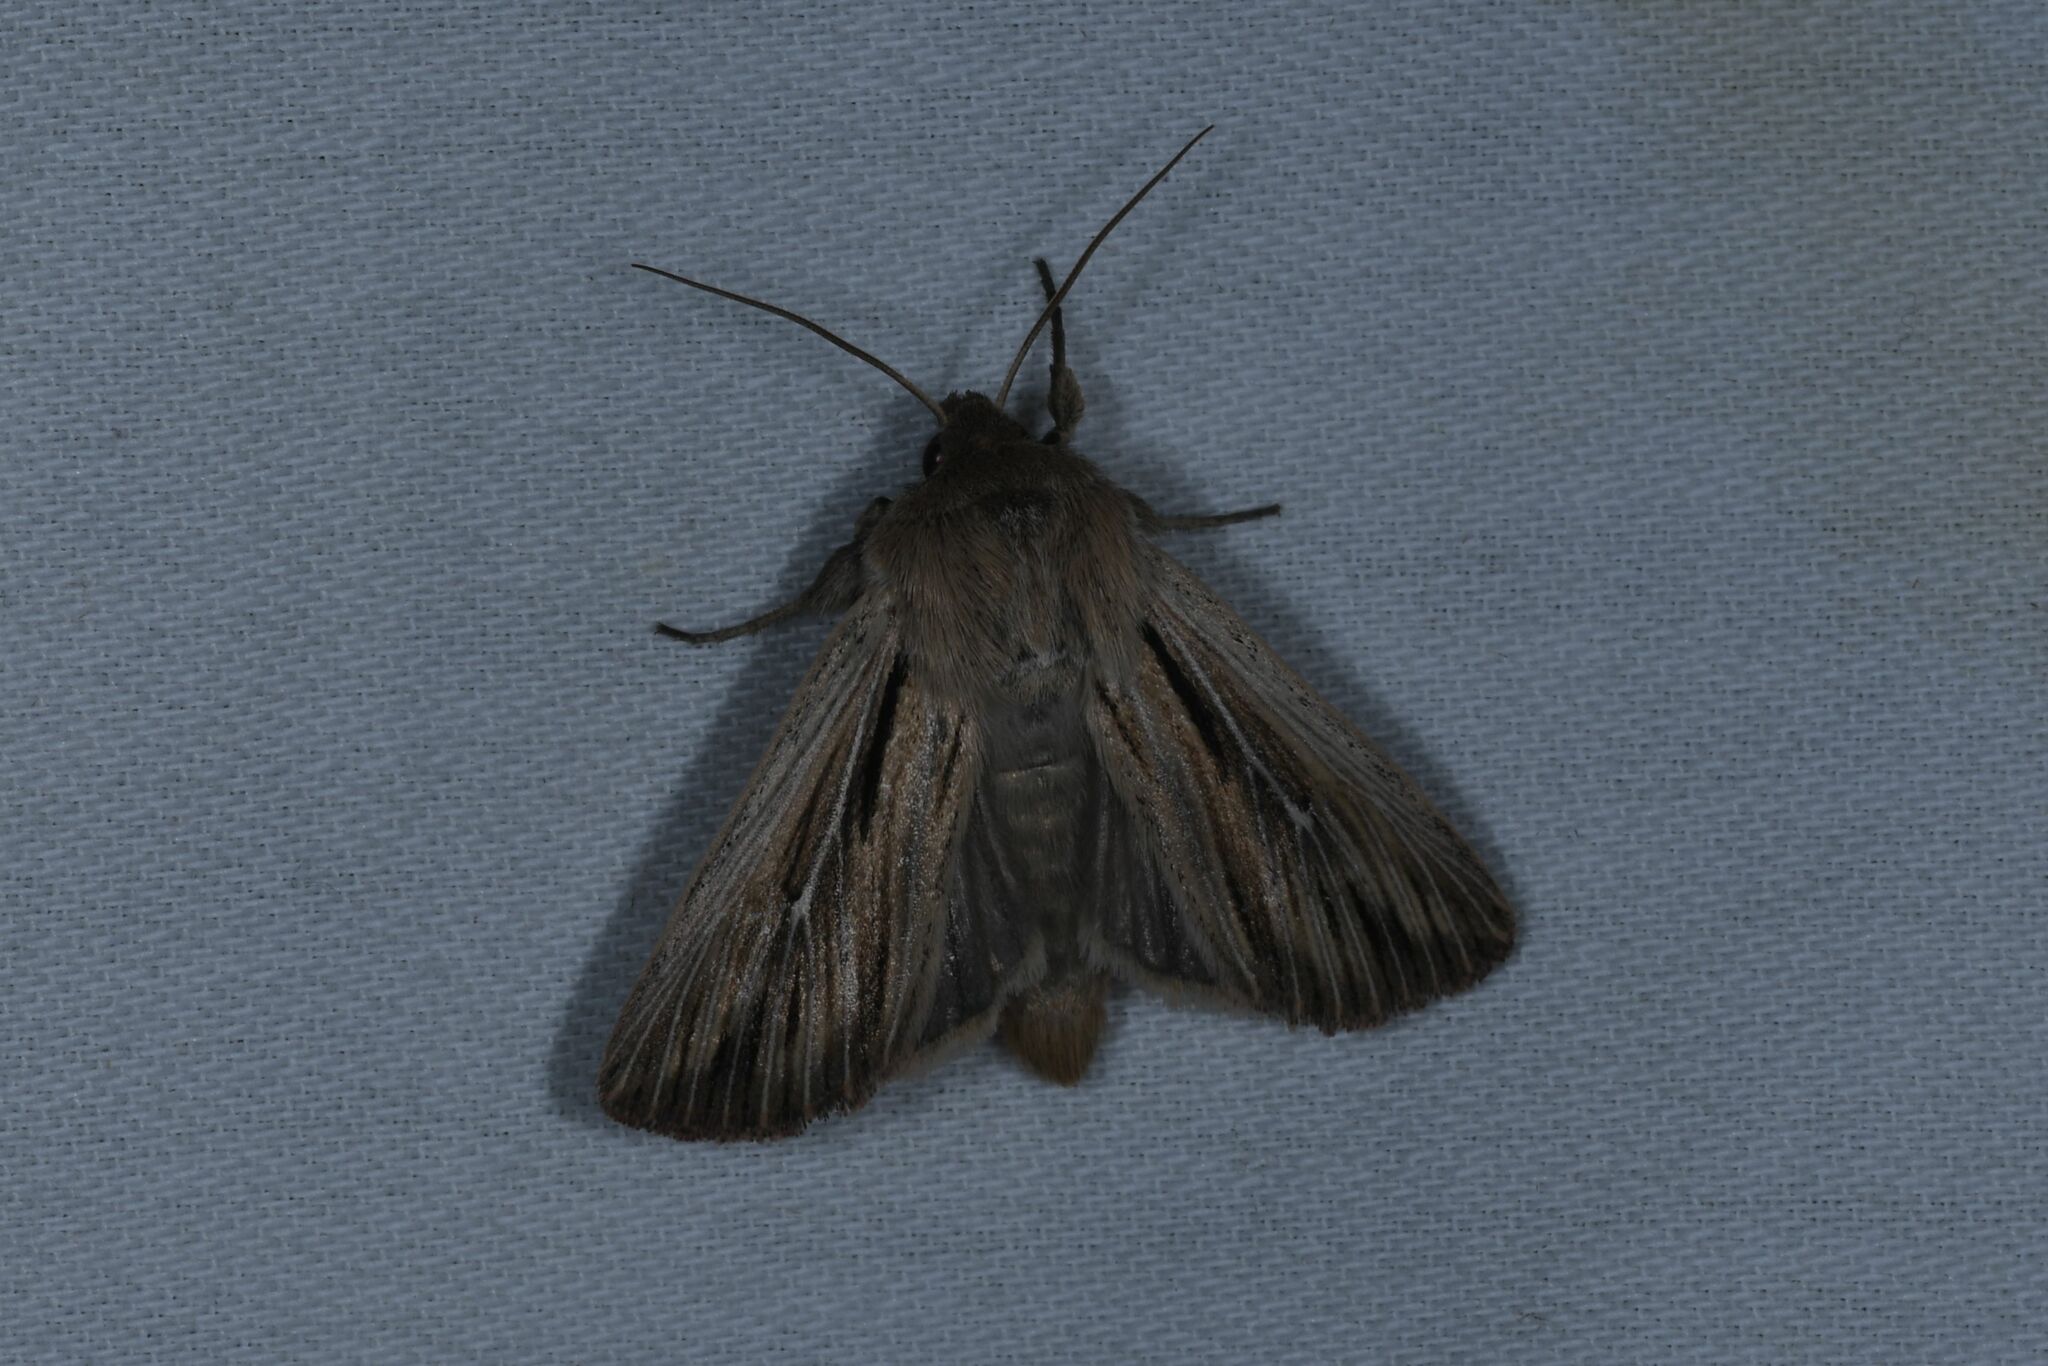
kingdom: Animalia
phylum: Arthropoda
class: Insecta
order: Lepidoptera
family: Noctuidae
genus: Leucania
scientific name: Leucania comma
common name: Shoulder-striped wainscot
